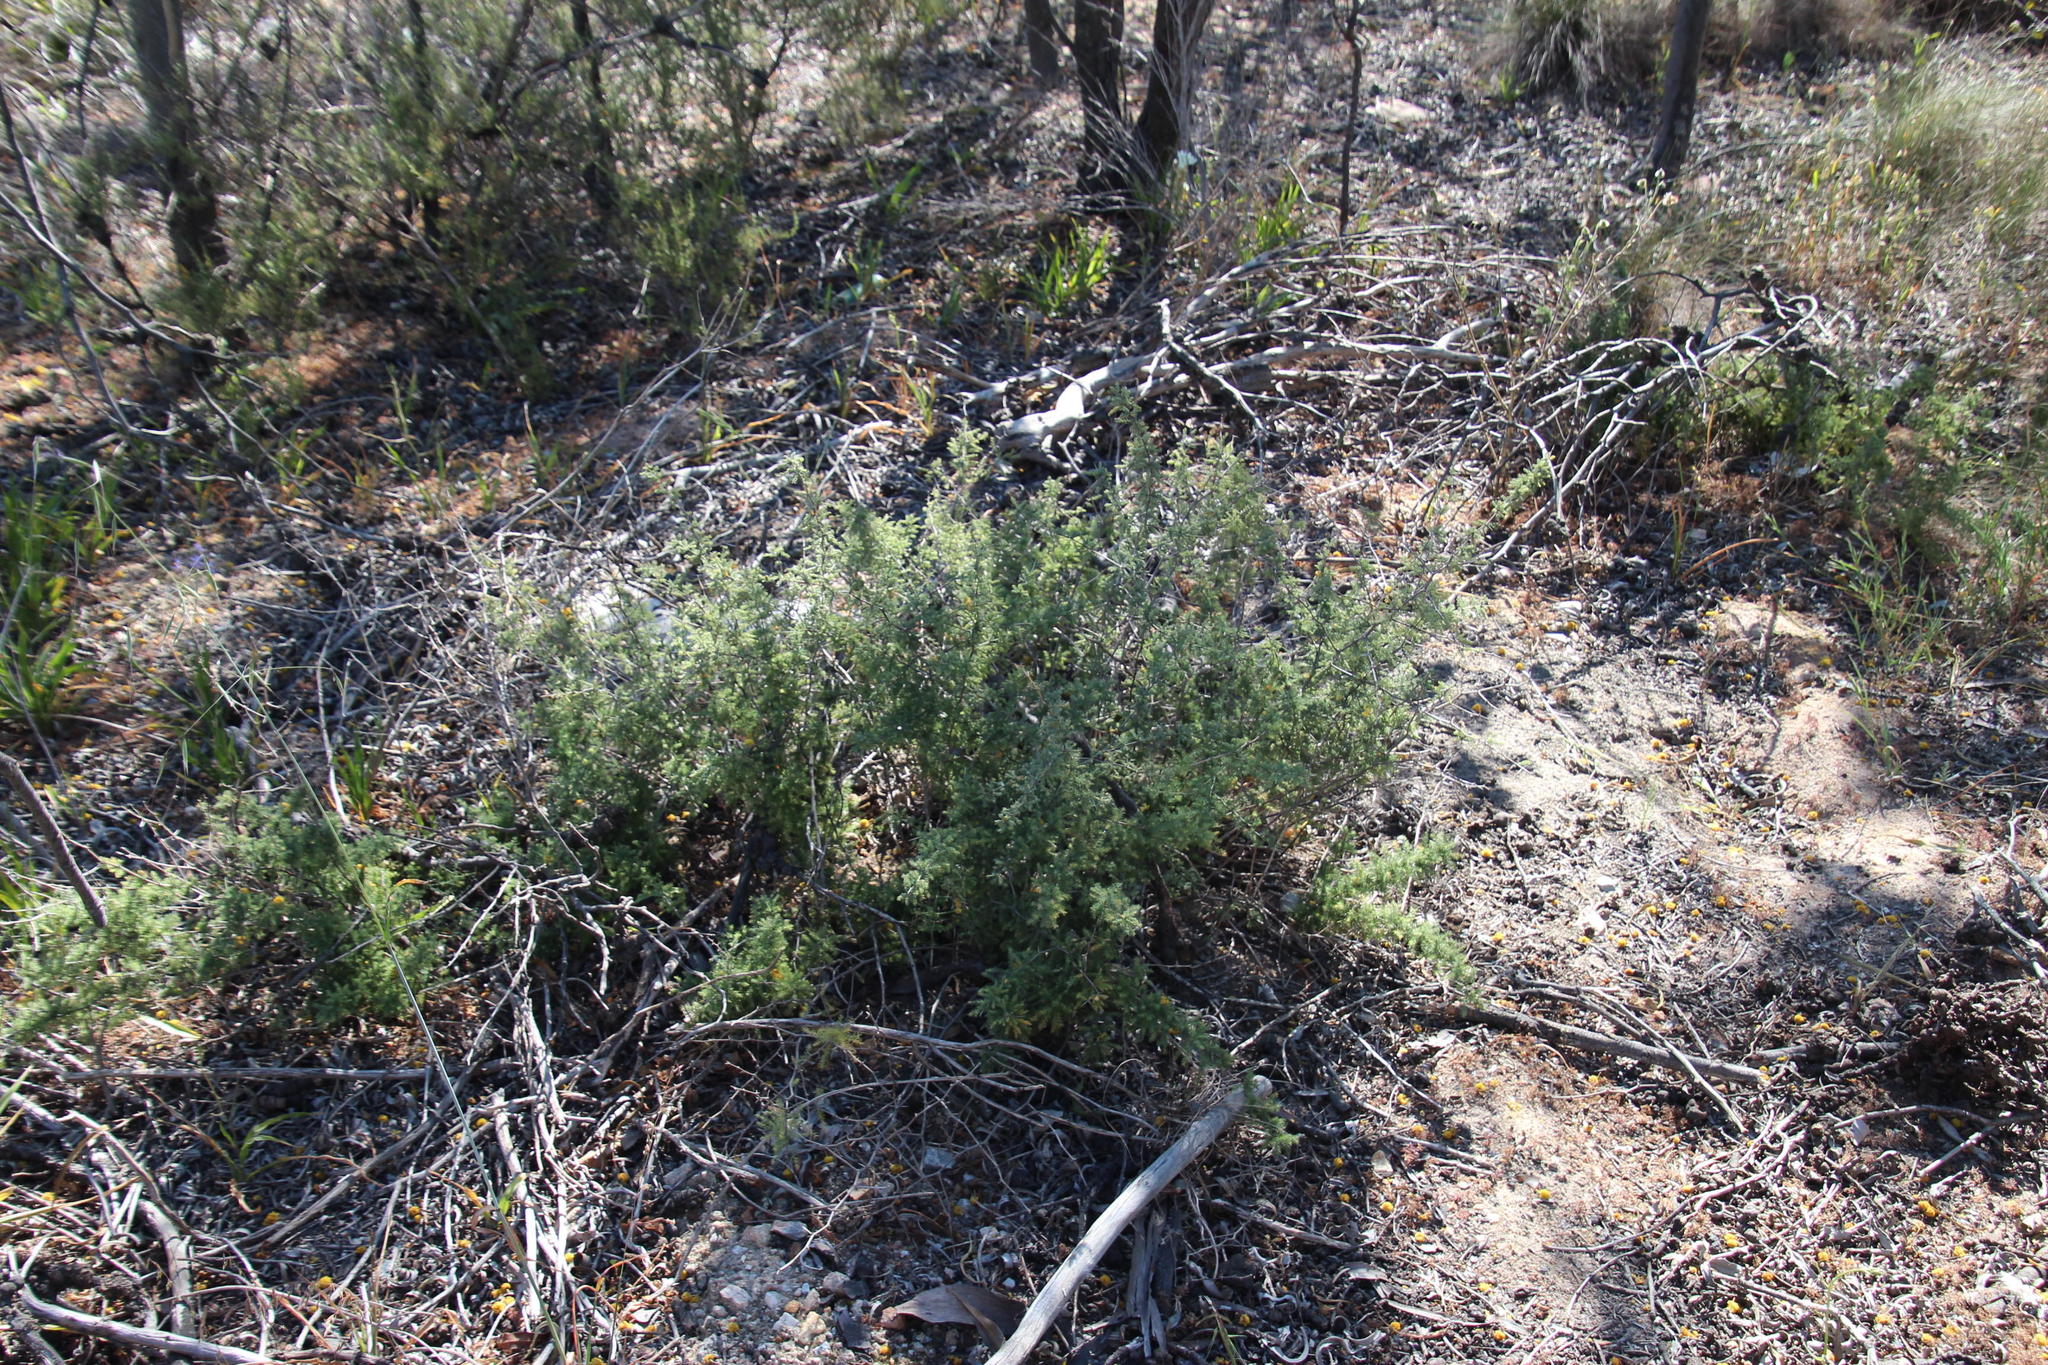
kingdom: Plantae
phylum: Tracheophyta
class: Liliopsida
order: Asparagales
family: Asparagaceae
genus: Asparagus
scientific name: Asparagus rubicundus
